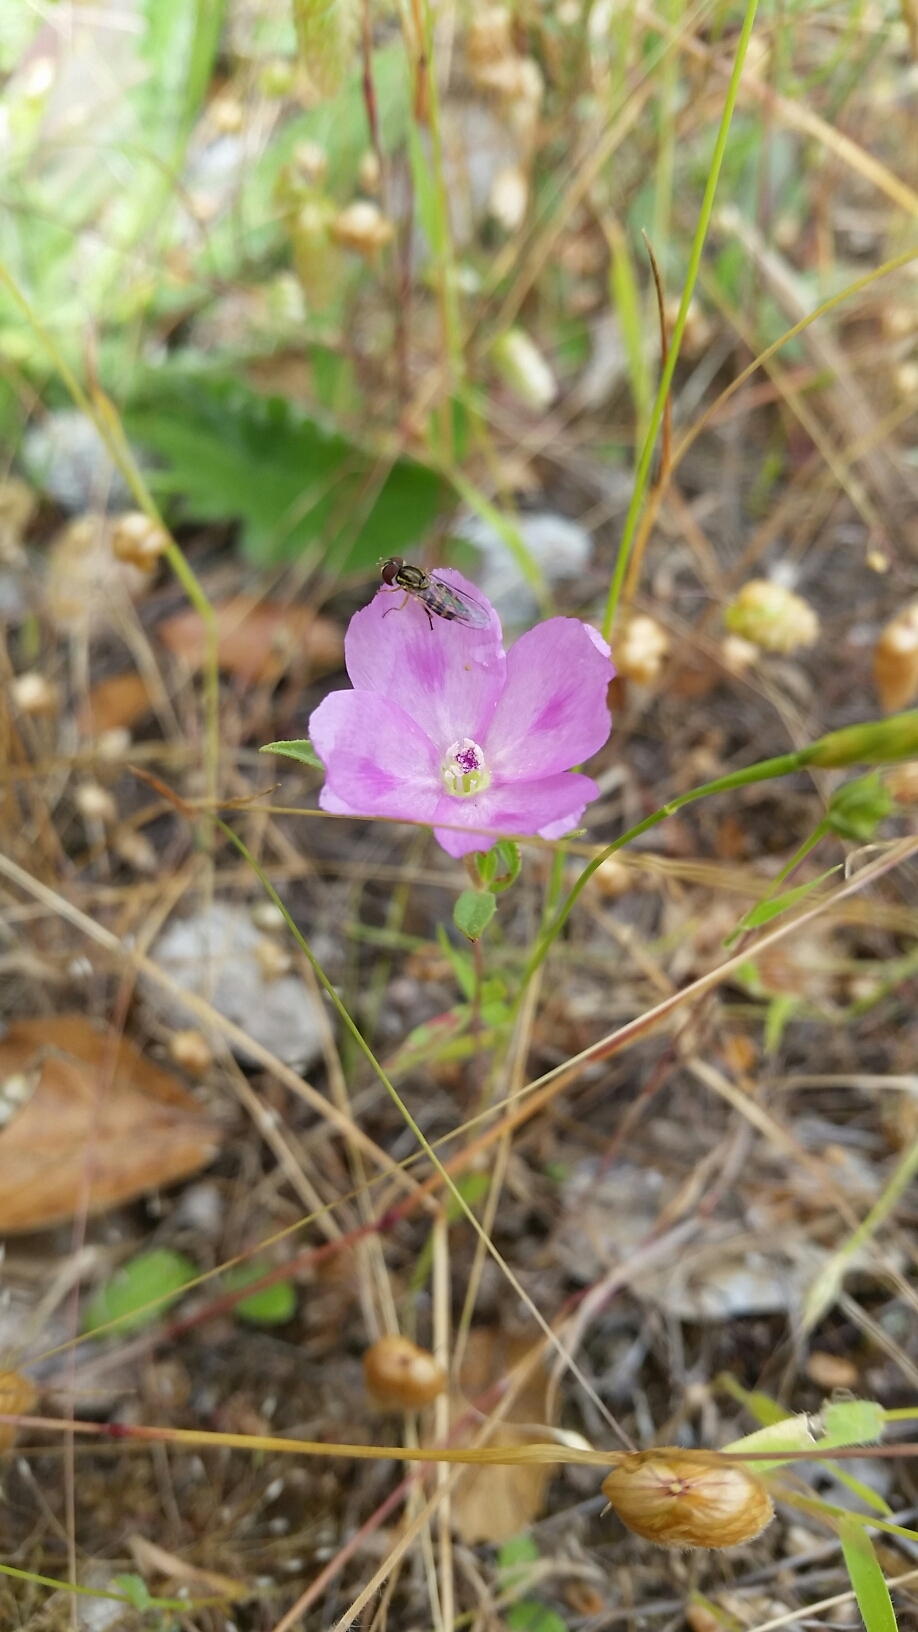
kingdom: Plantae
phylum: Tracheophyta
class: Magnoliopsida
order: Myrtales
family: Onagraceae
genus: Clarkia
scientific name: Clarkia gracilis
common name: Graceful clarkia
